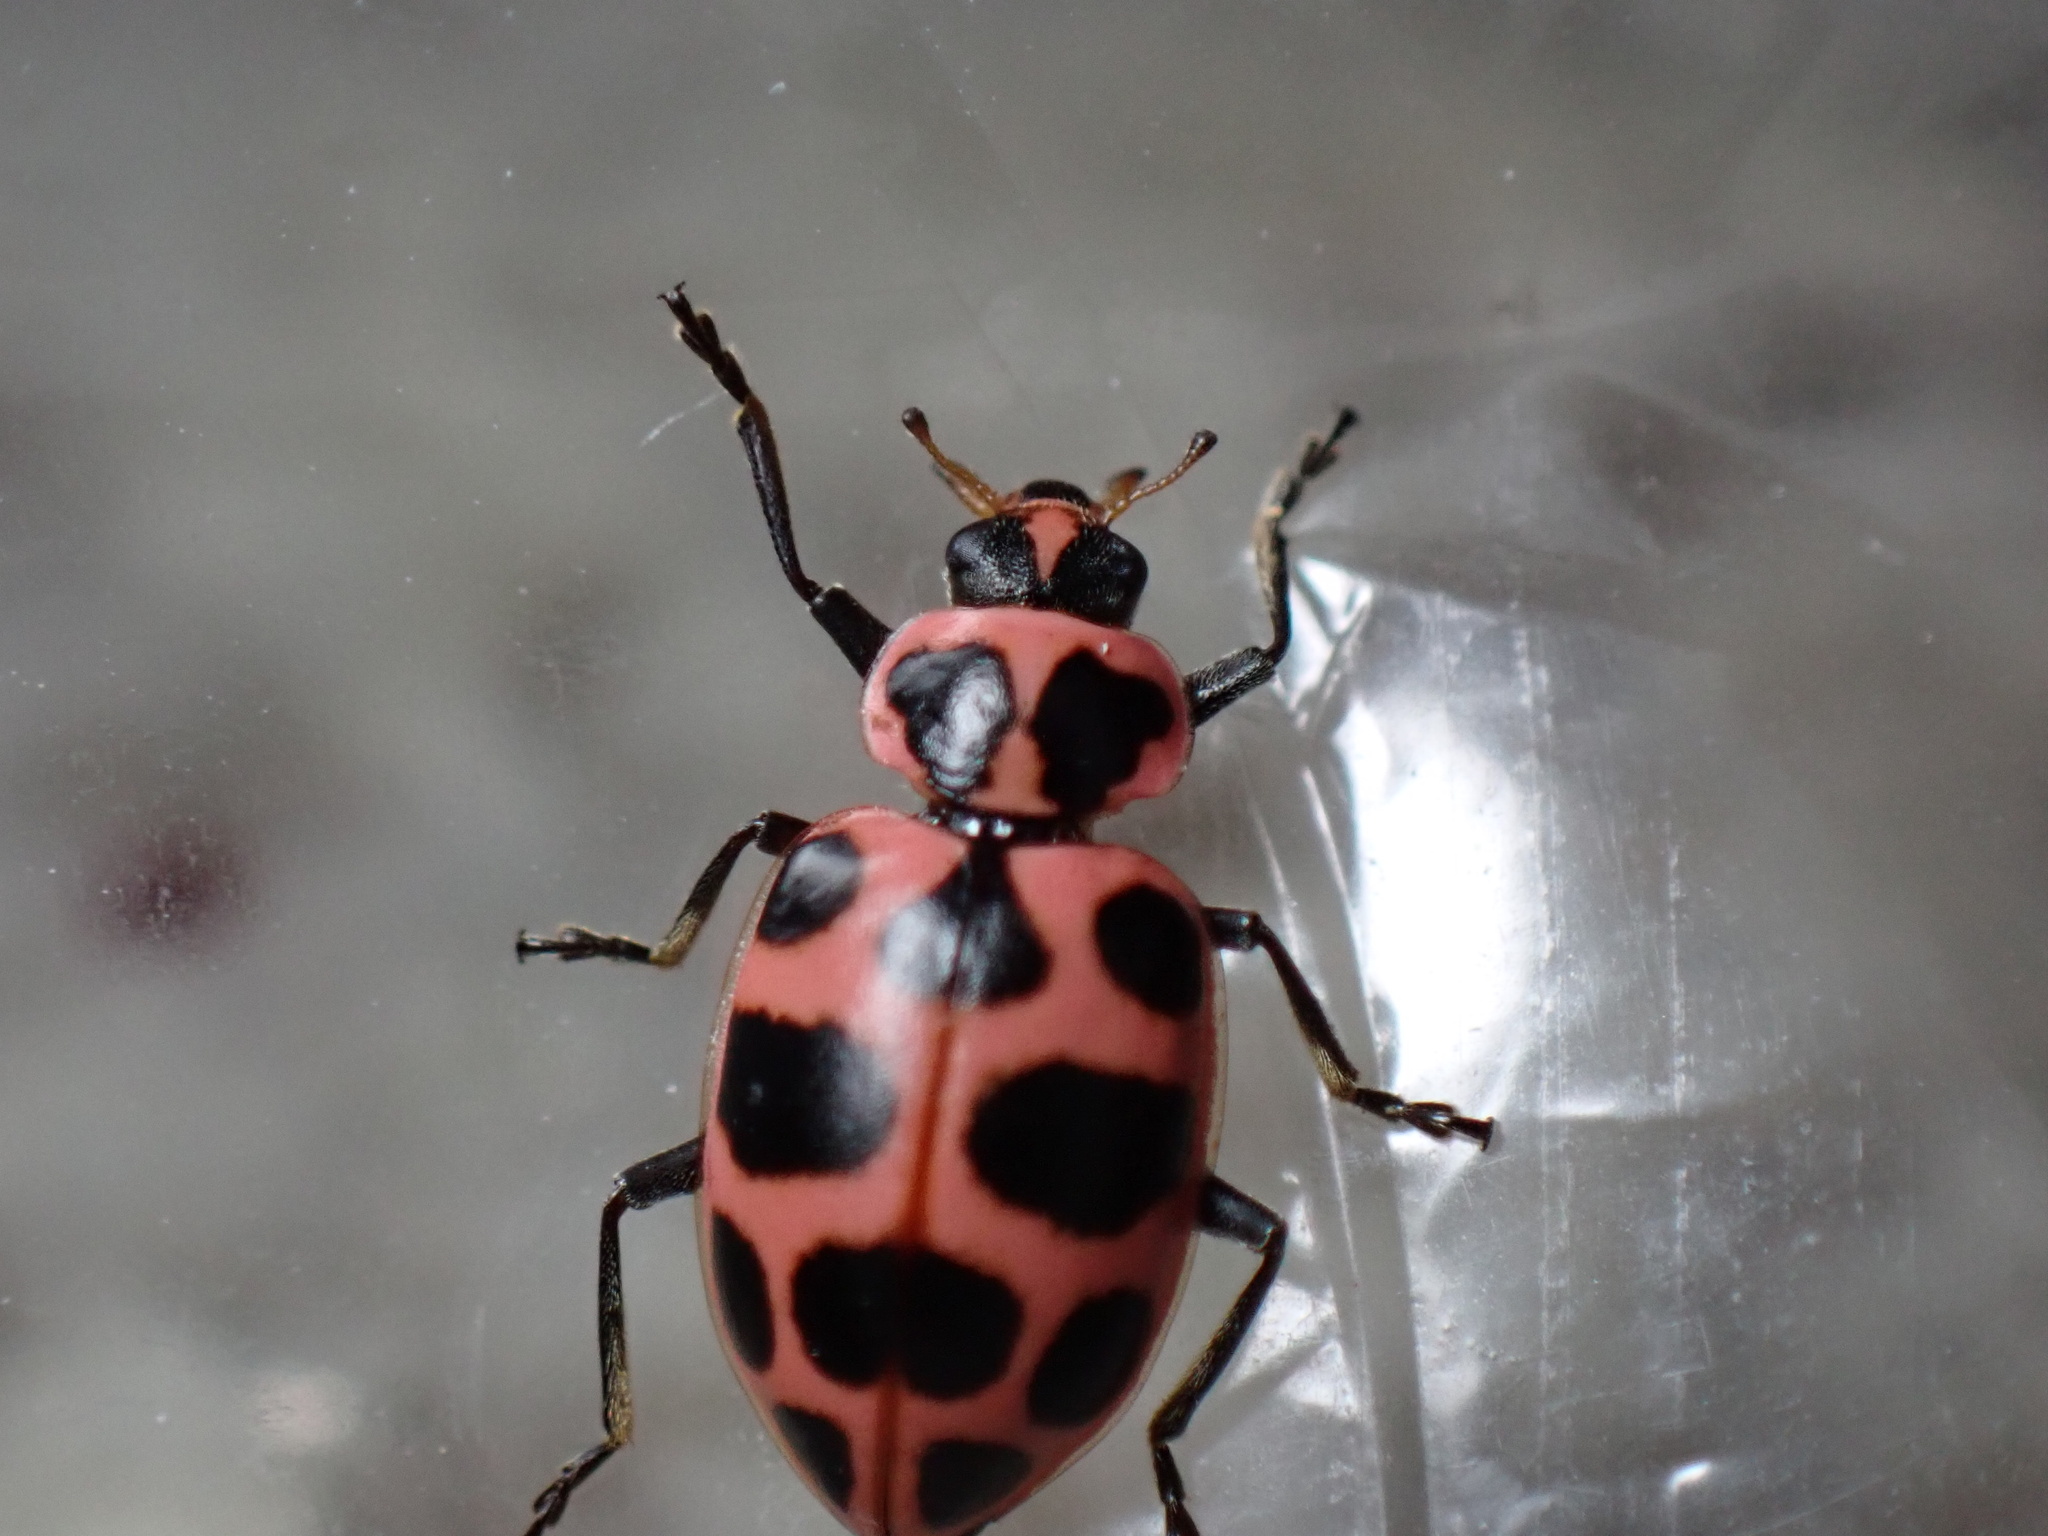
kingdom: Animalia
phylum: Arthropoda
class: Insecta
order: Coleoptera
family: Coccinellidae
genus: Coleomegilla
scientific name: Coleomegilla maculata
